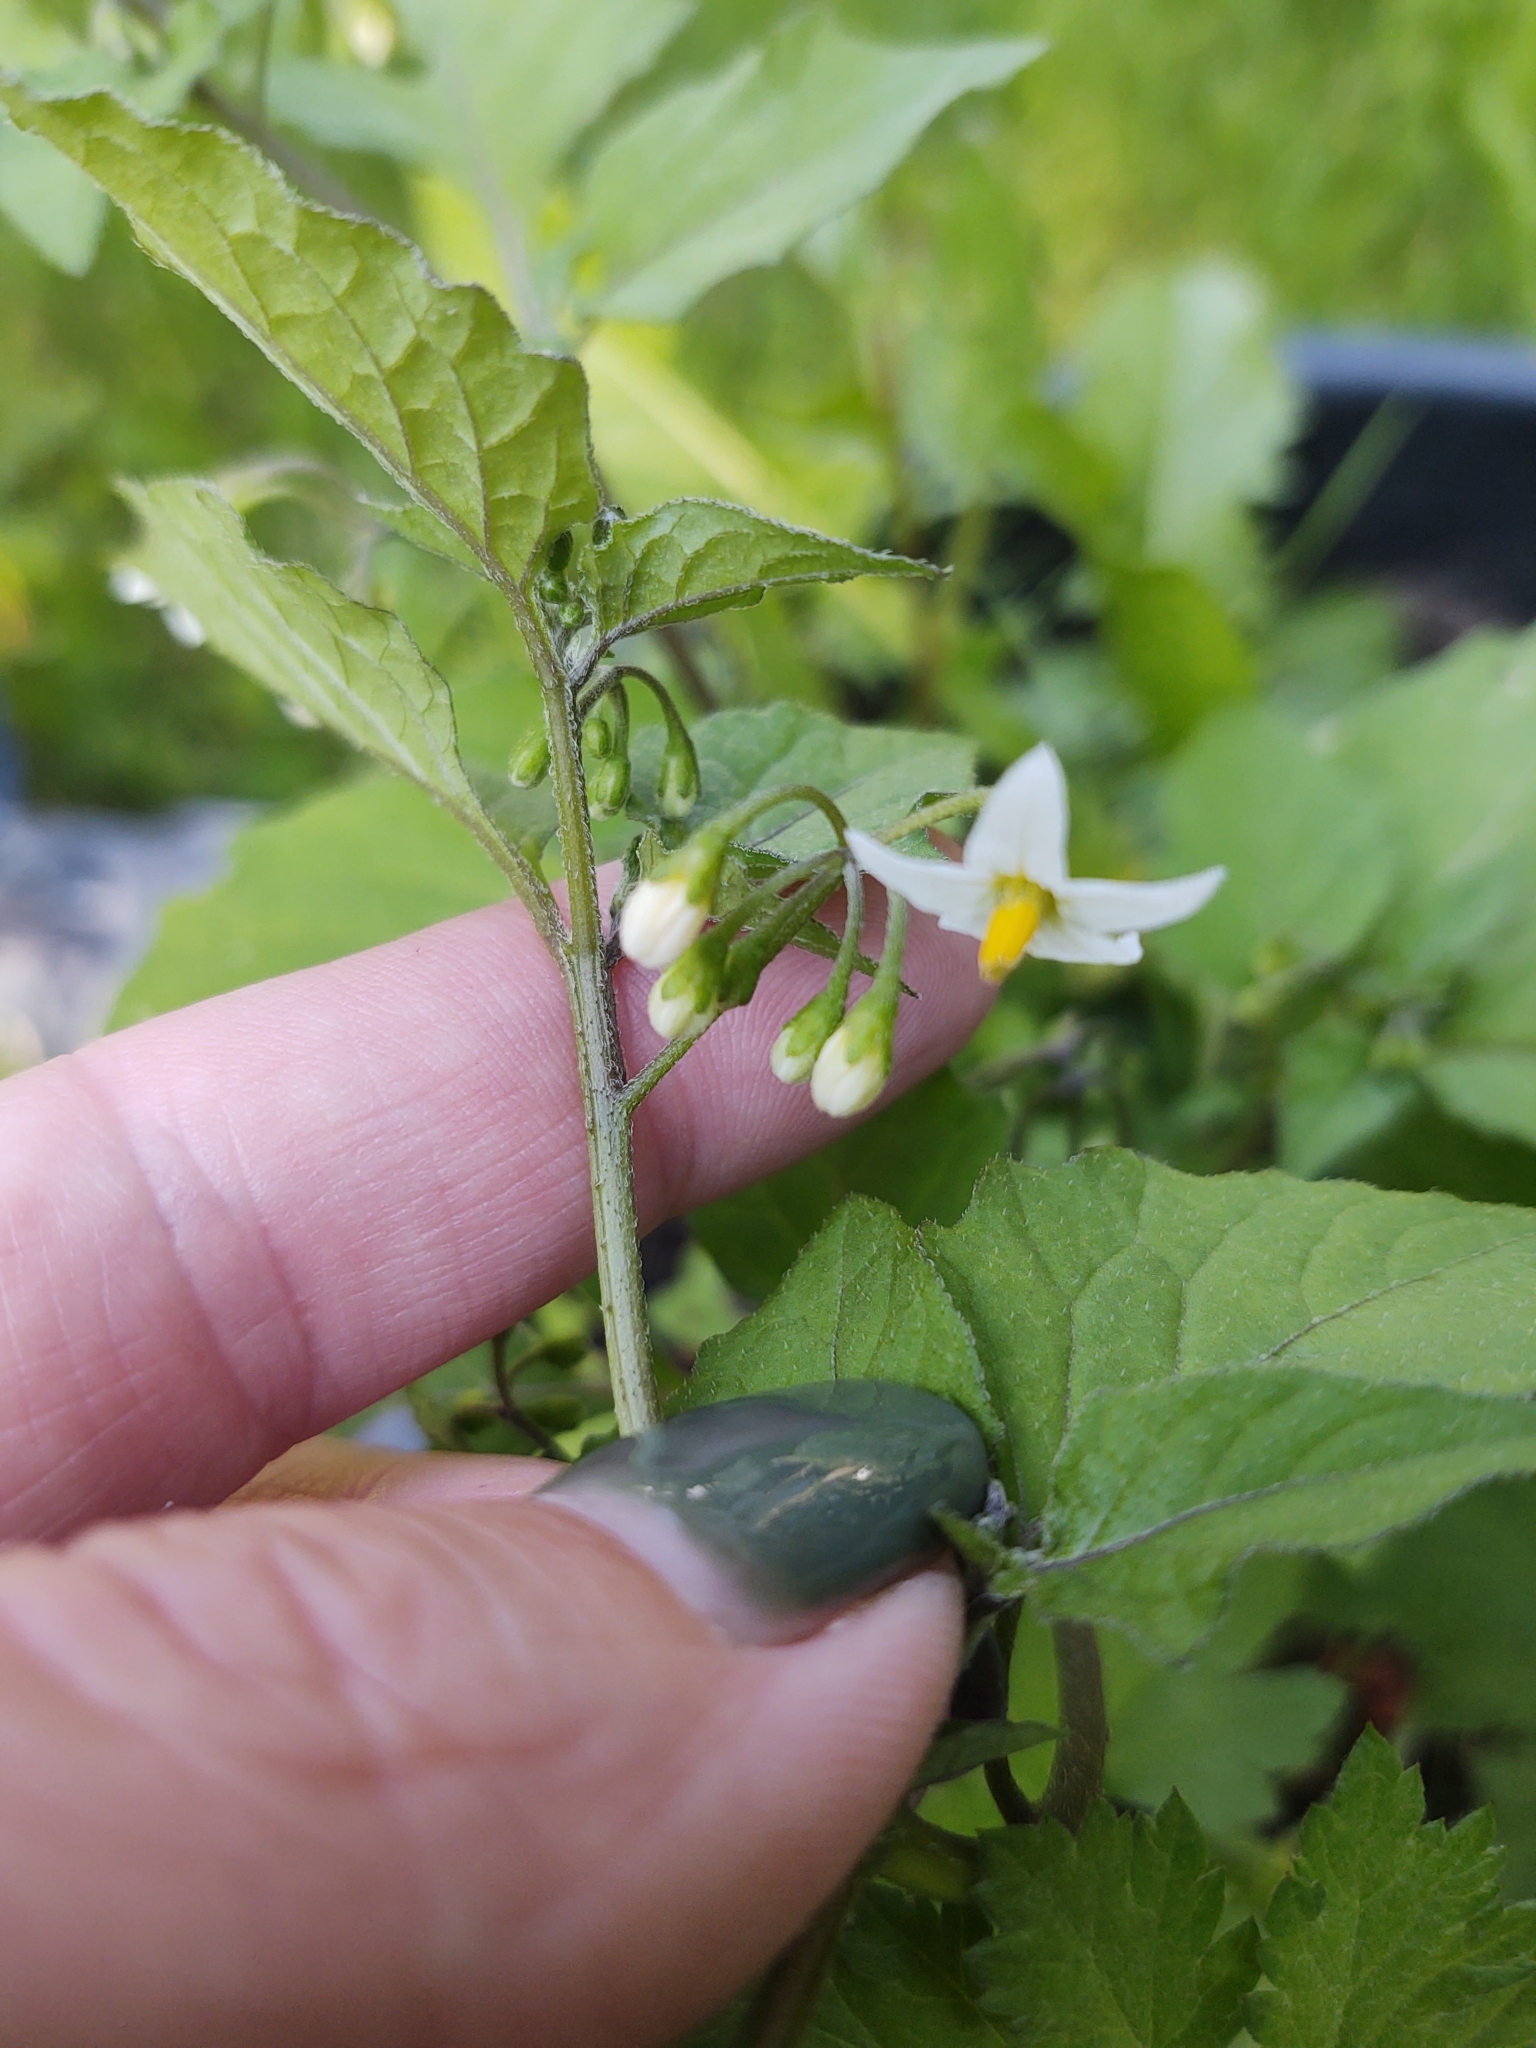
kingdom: Plantae
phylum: Tracheophyta
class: Magnoliopsida
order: Solanales
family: Solanaceae
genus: Solanum
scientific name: Solanum nigrum
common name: Black nightshade
